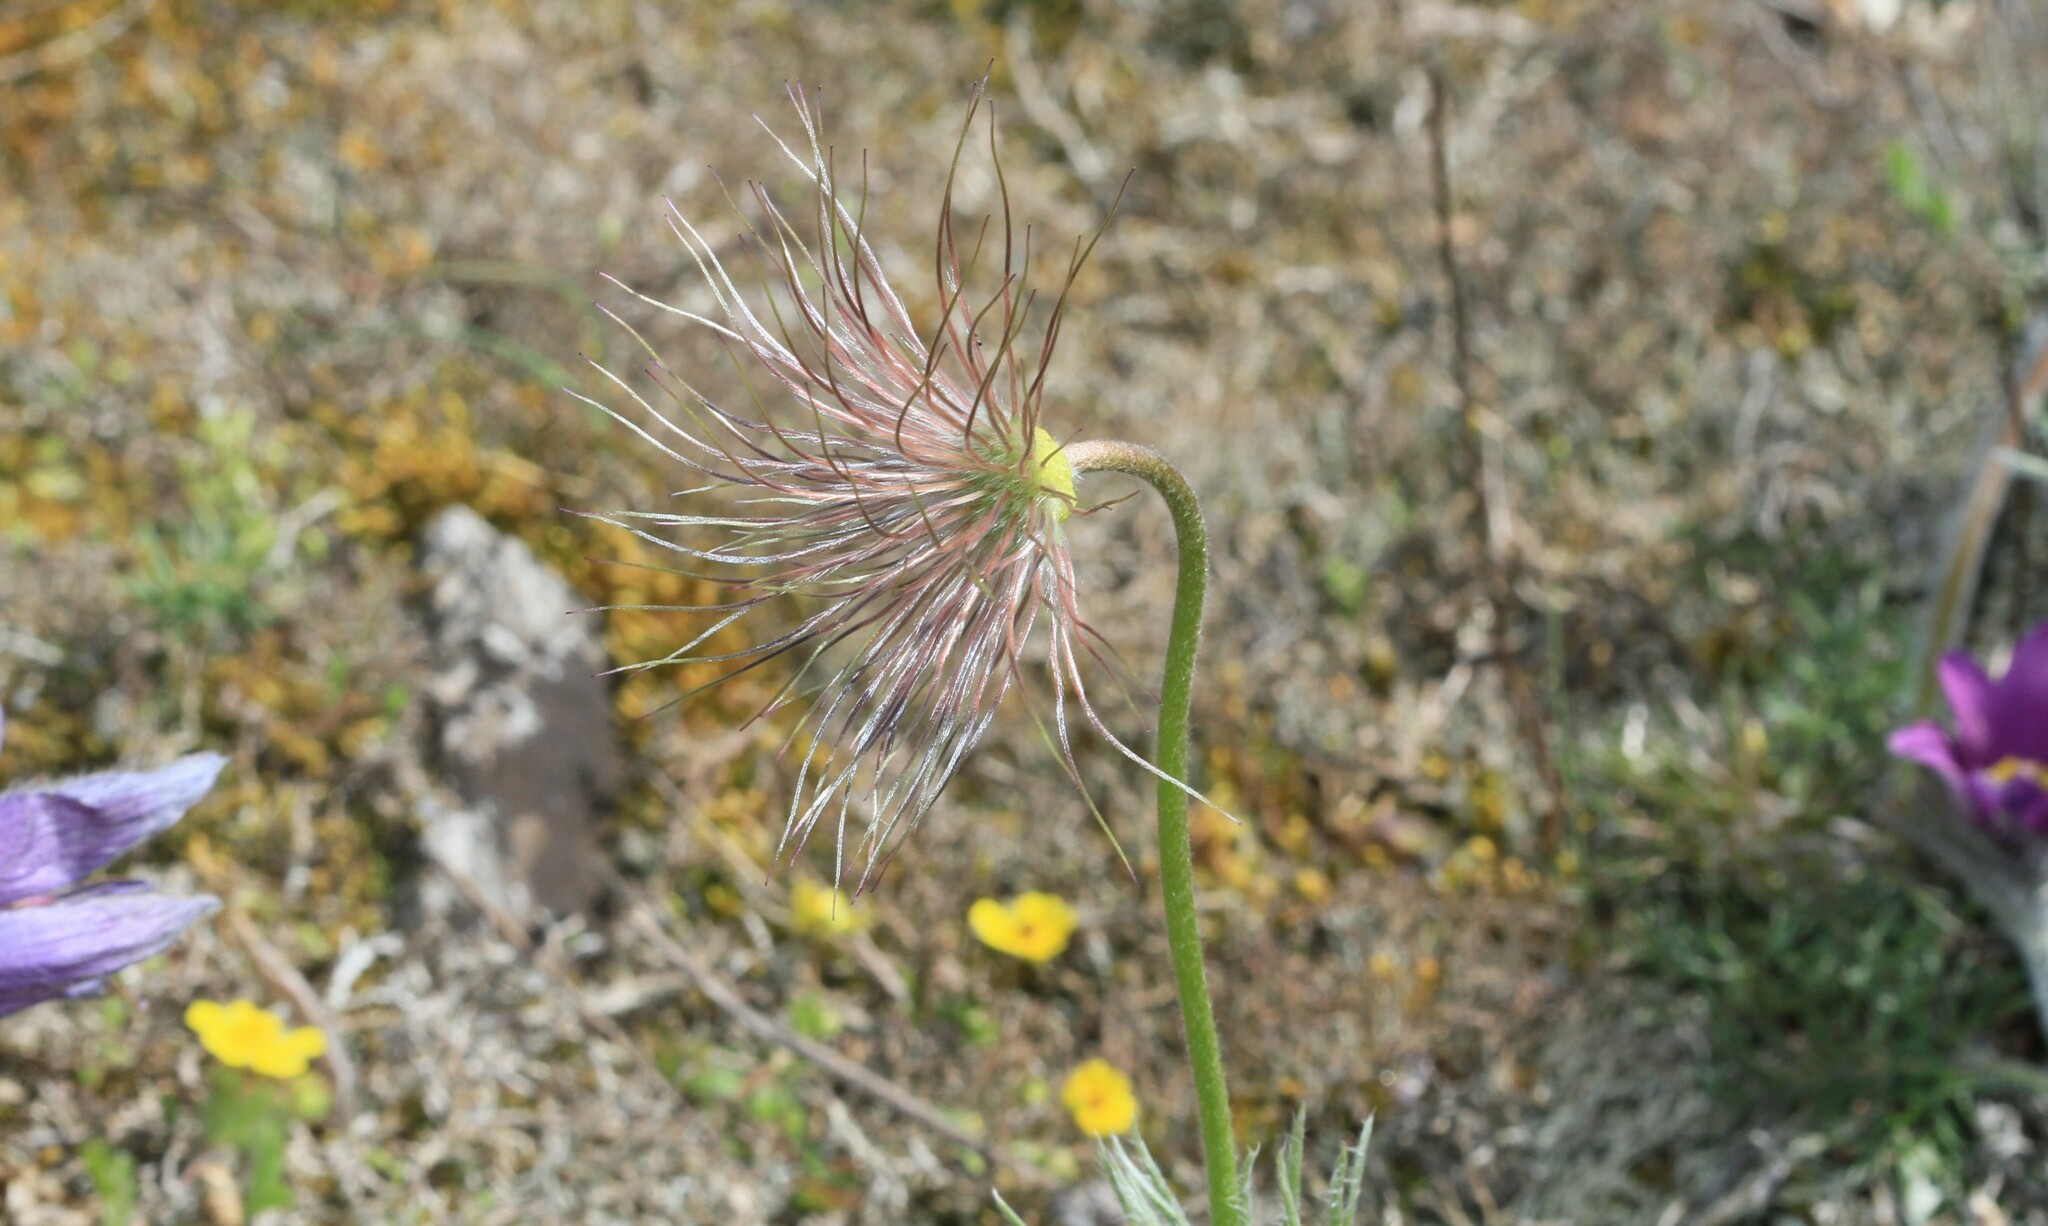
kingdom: Plantae
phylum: Tracheophyta
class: Magnoliopsida
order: Ranunculales
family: Ranunculaceae
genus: Pulsatilla
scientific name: Pulsatilla vulgaris
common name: Pasqueflower
